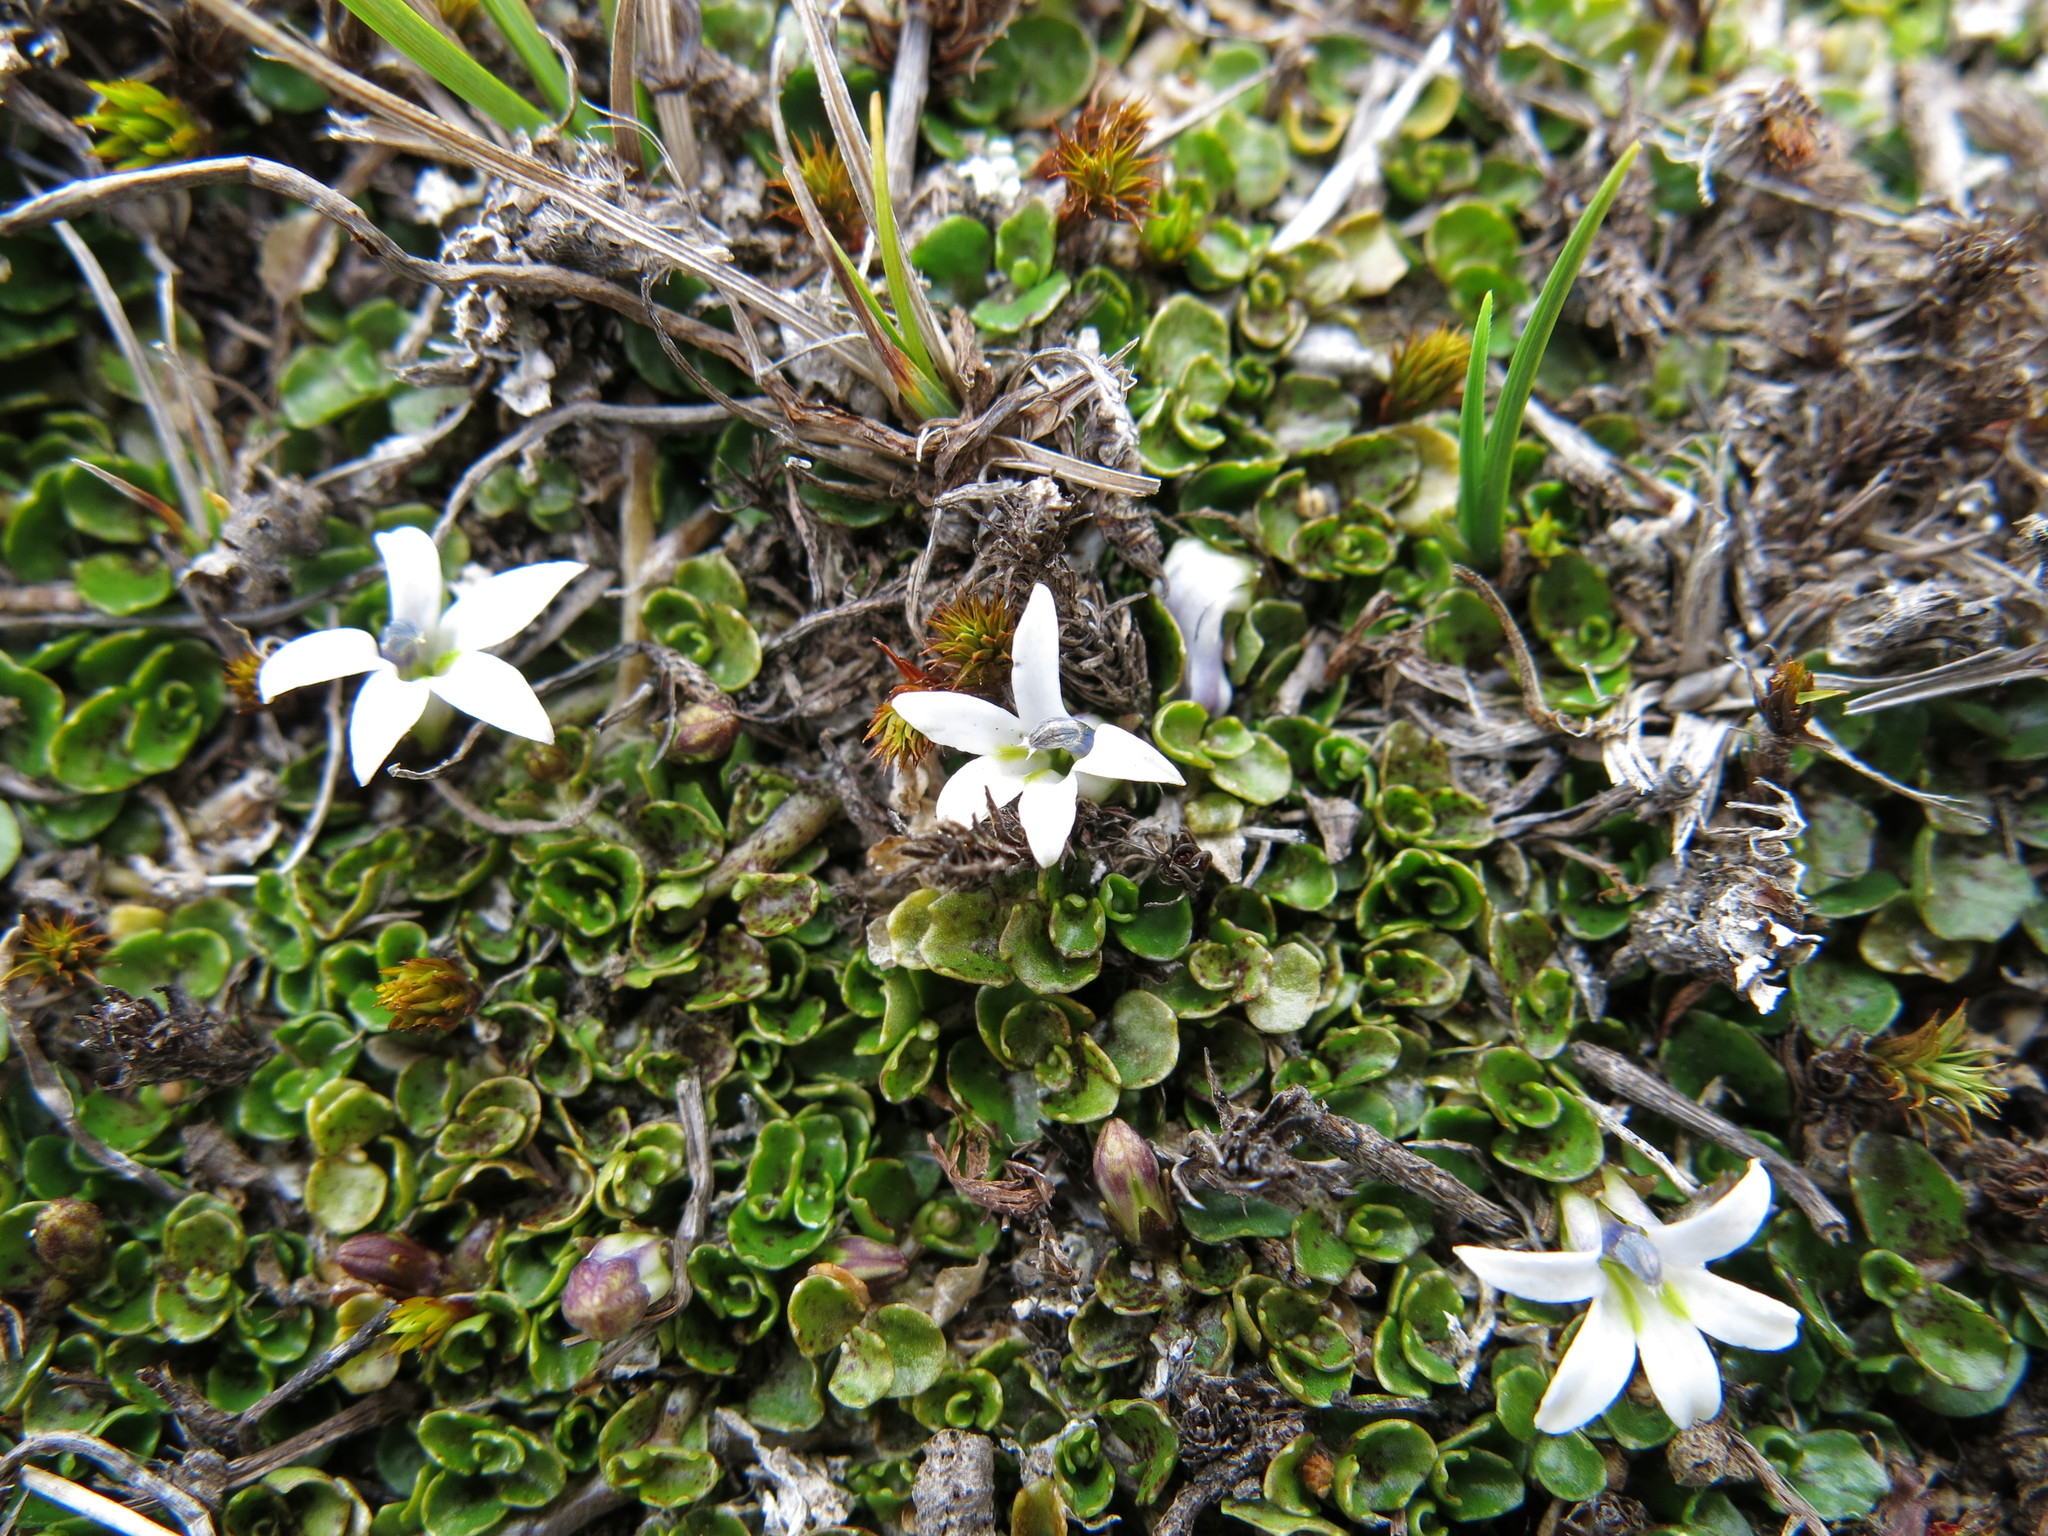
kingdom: Plantae
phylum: Tracheophyta
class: Magnoliopsida
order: Asterales
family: Campanulaceae
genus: Lobelia
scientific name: Lobelia angulata
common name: Lawn lobelia
